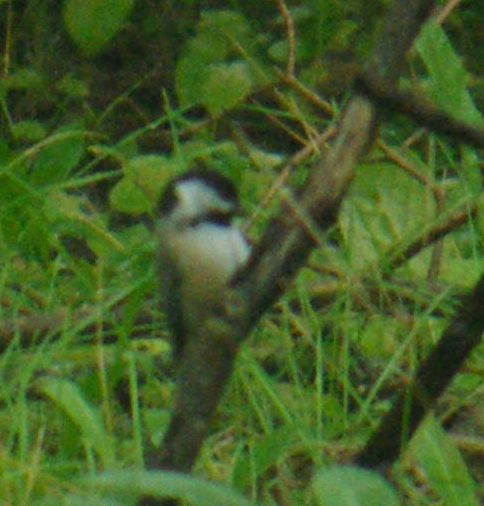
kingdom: Animalia
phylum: Chordata
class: Aves
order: Passeriformes
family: Paridae
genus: Poecile
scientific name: Poecile atricapillus
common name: Black-capped chickadee
